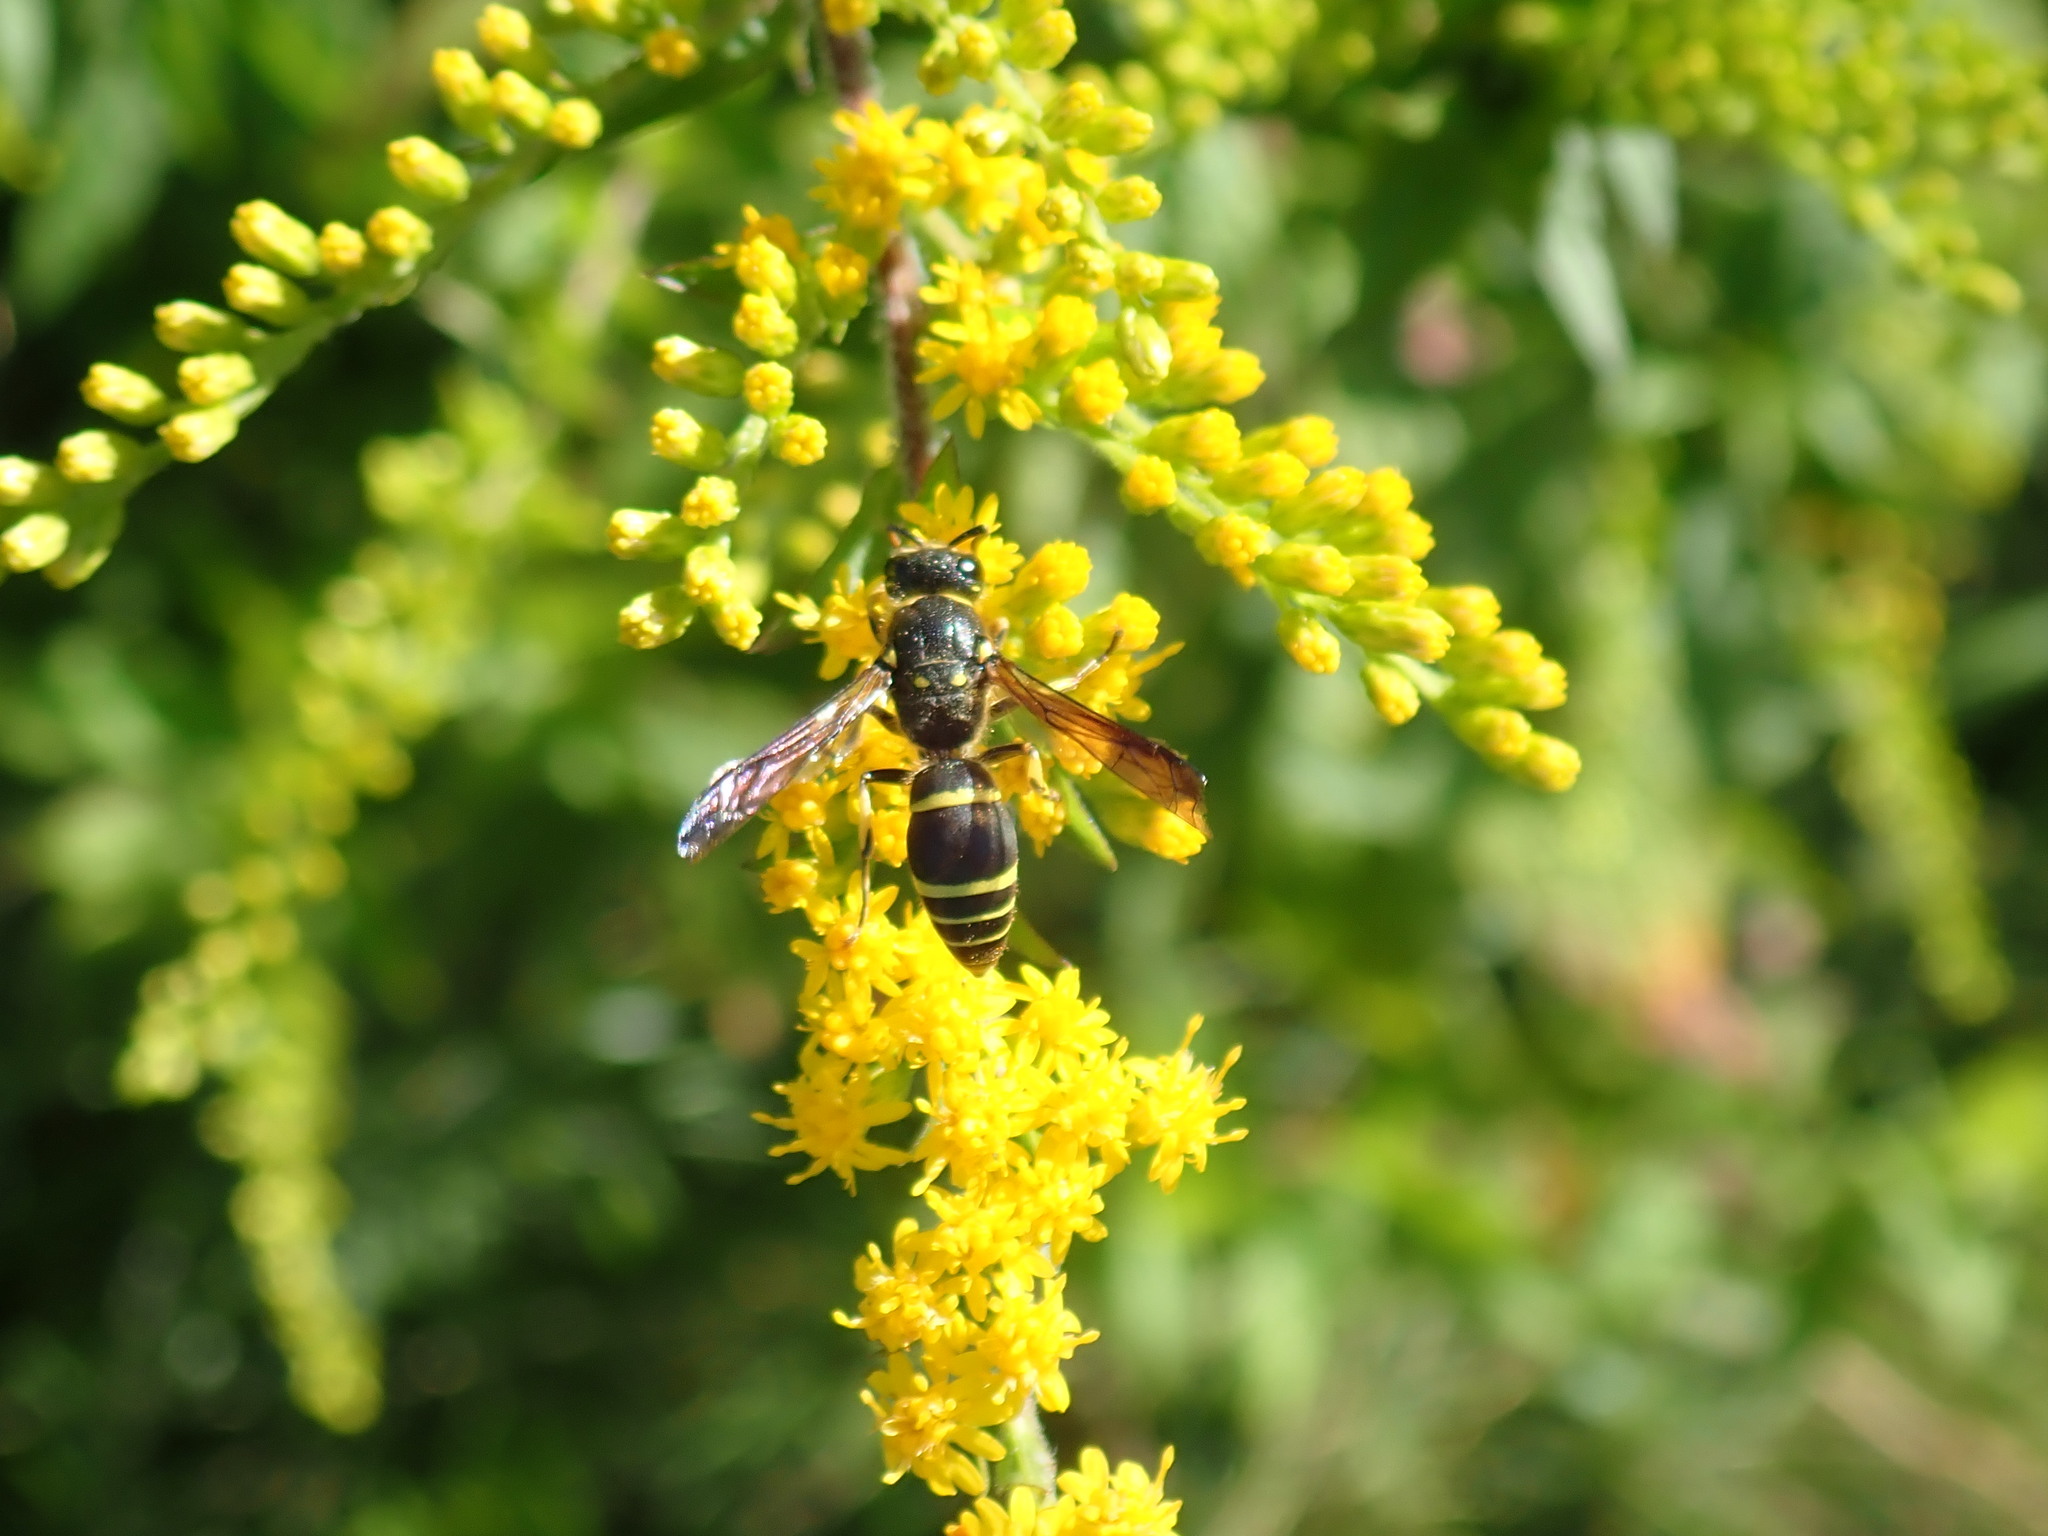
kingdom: Animalia
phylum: Arthropoda
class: Insecta
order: Hymenoptera
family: Vespidae
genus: Ancistrocerus
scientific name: Ancistrocerus
